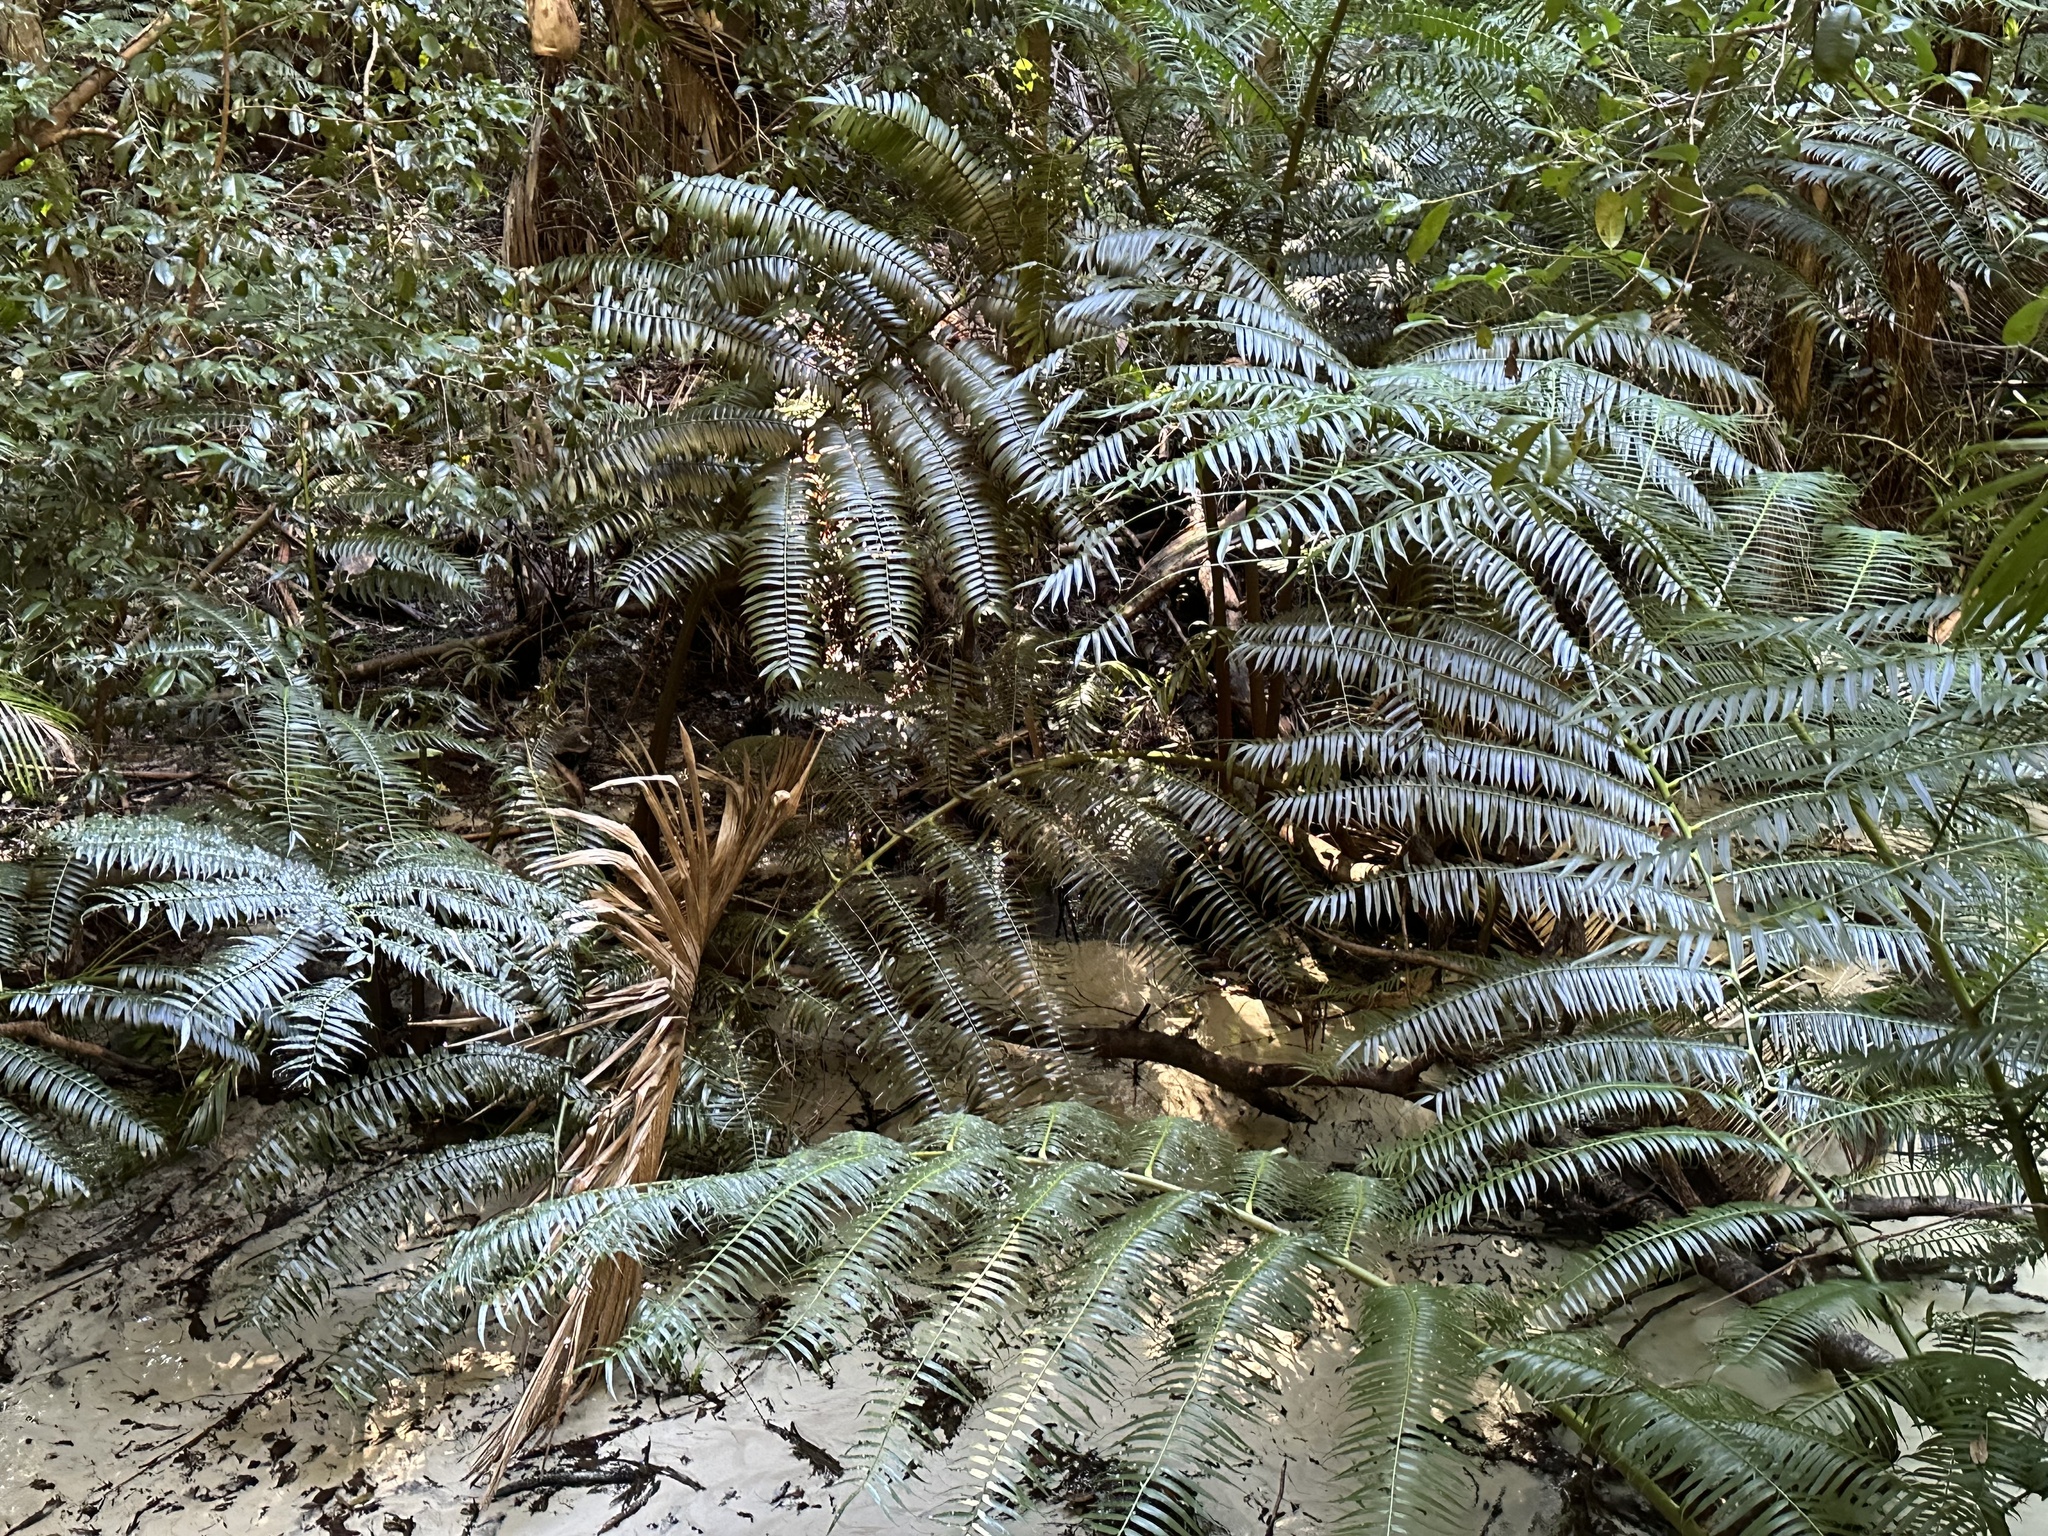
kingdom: Plantae
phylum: Tracheophyta
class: Polypodiopsida
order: Marattiales
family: Marattiaceae
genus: Angiopteris
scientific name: Angiopteris evecta
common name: Mule's-foot fern
